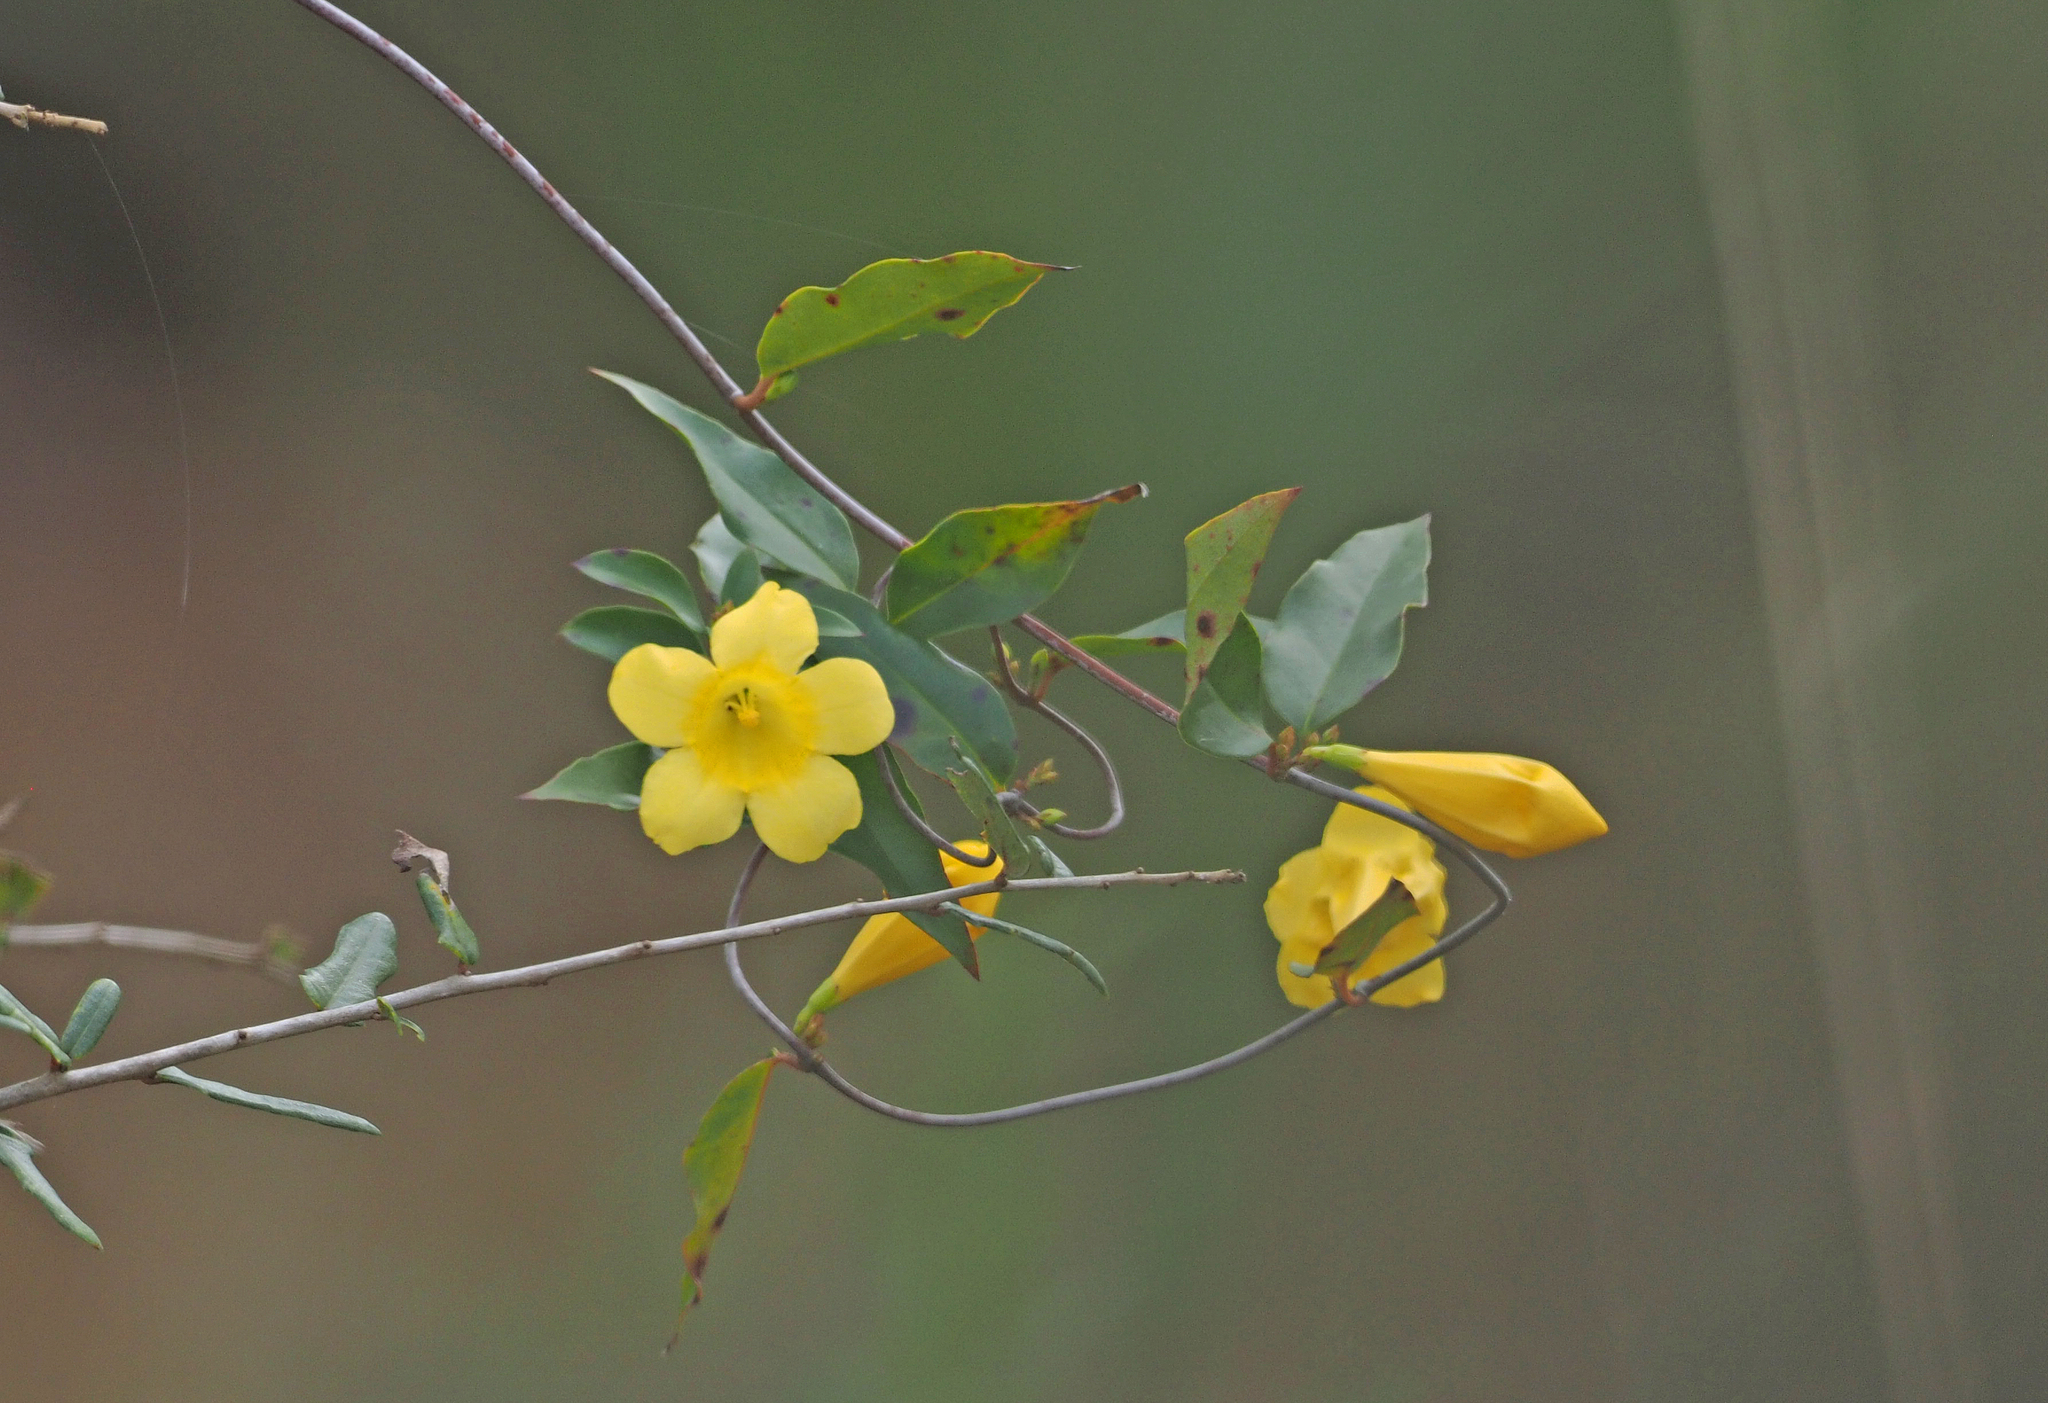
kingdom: Plantae
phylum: Tracheophyta
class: Magnoliopsida
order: Gentianales
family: Gelsemiaceae
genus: Gelsemium
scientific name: Gelsemium sempervirens
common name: Carolina-jasmine
